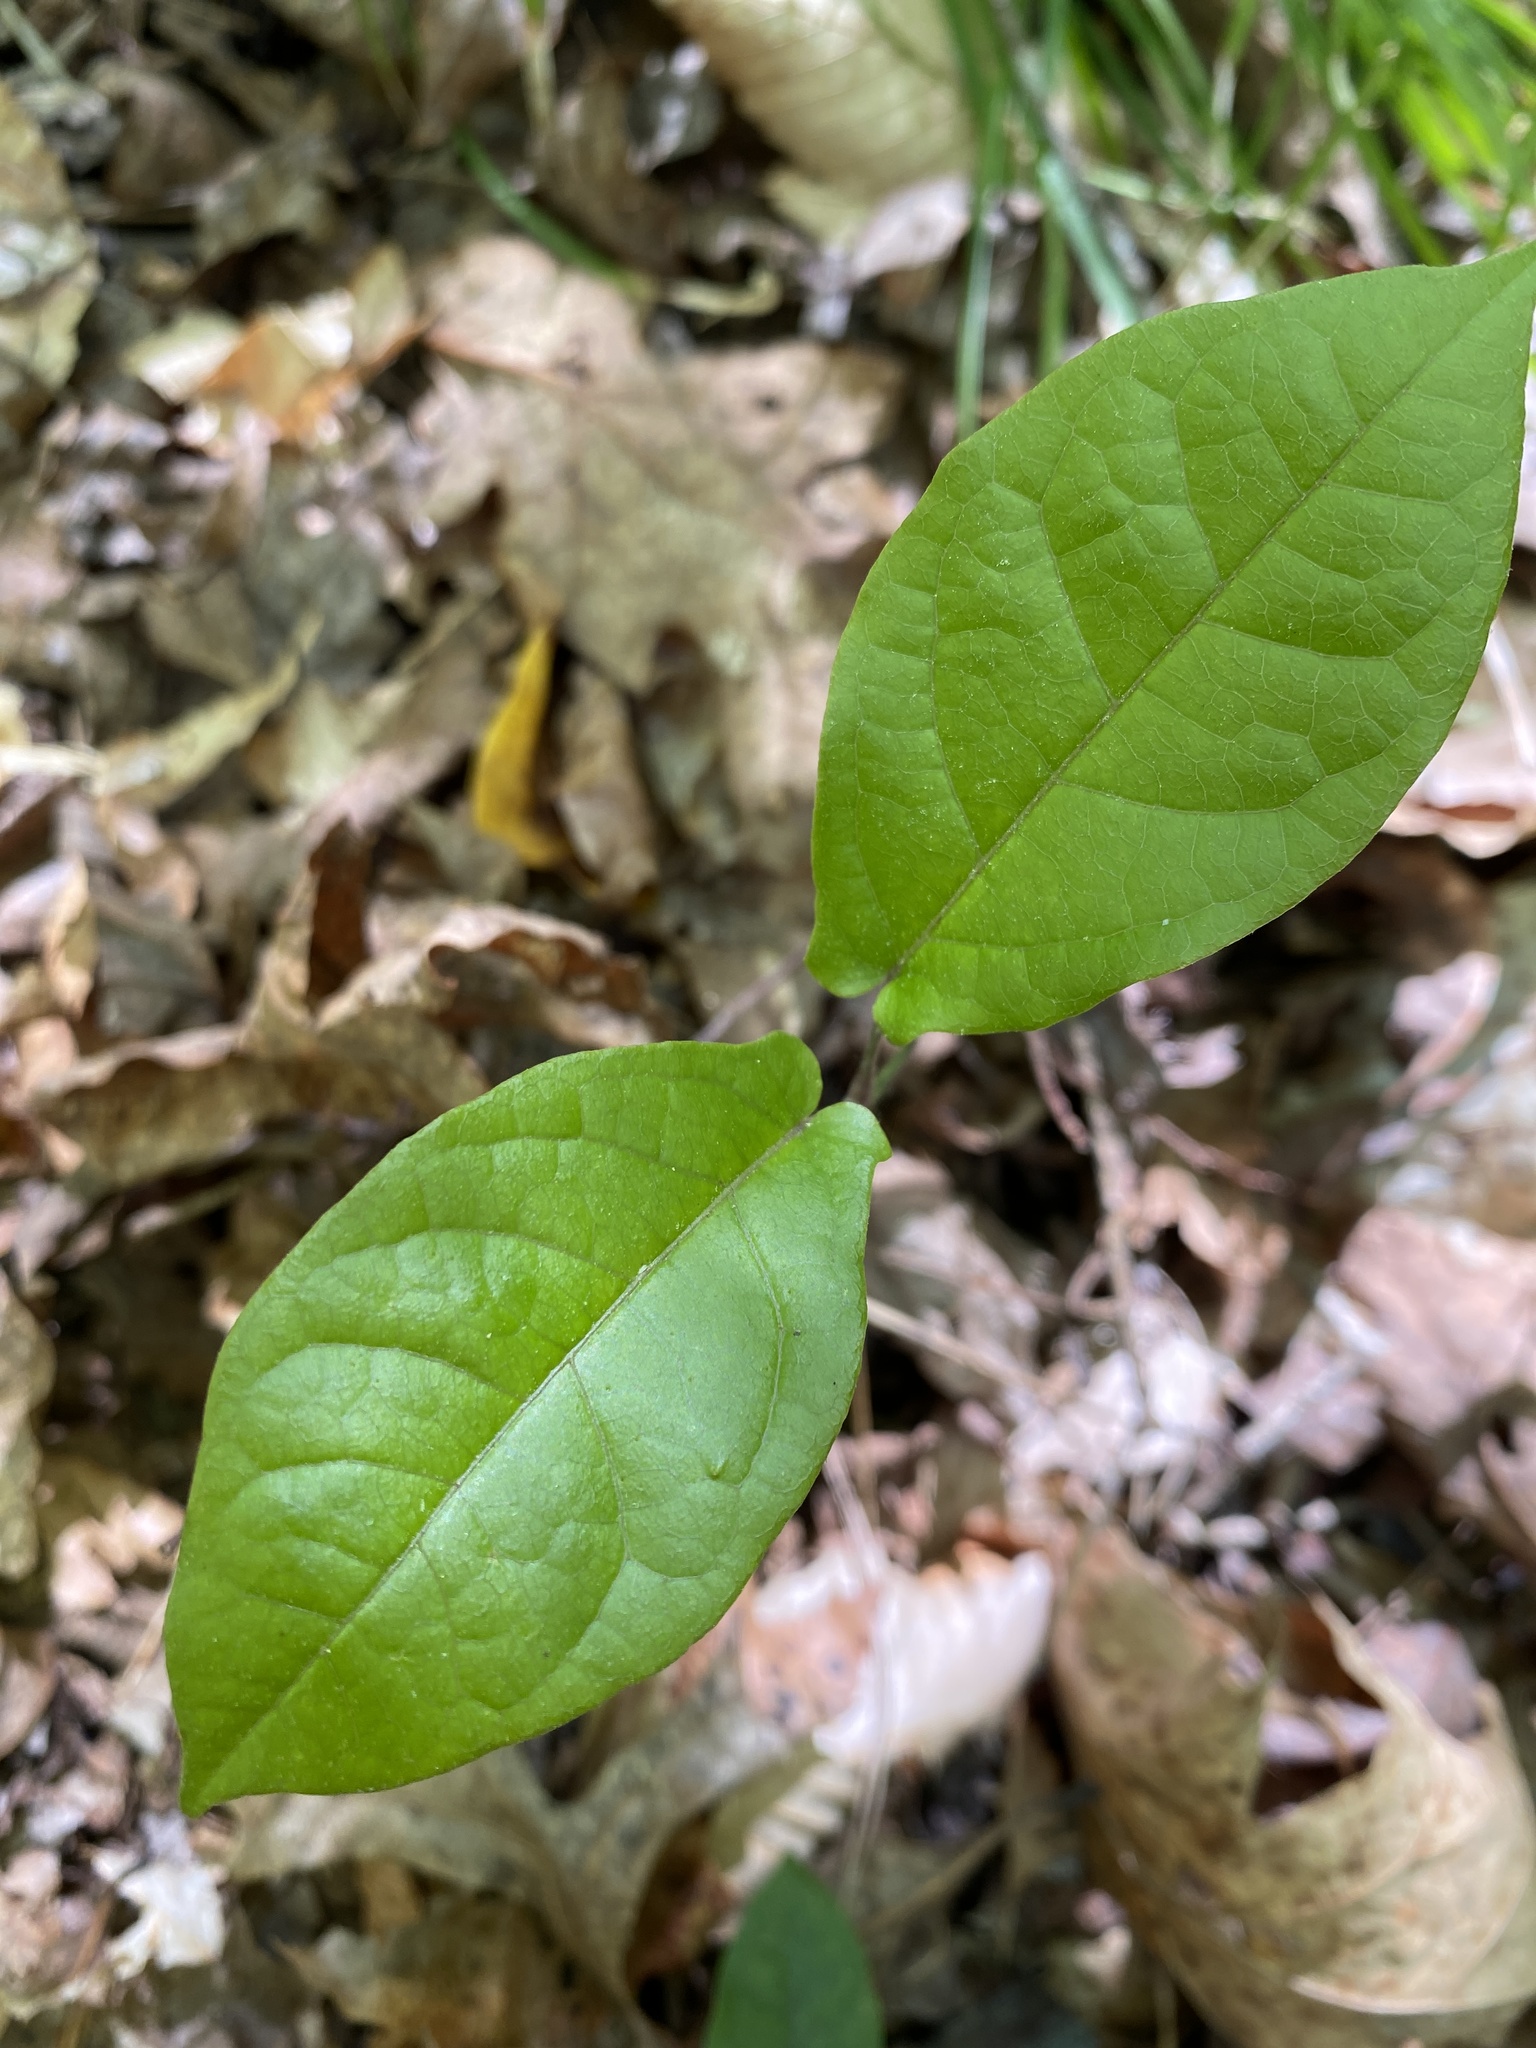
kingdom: Plantae
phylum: Tracheophyta
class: Magnoliopsida
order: Lamiales
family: Bignoniaceae
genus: Bignonia
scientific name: Bignonia capreolata
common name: Crossvine
